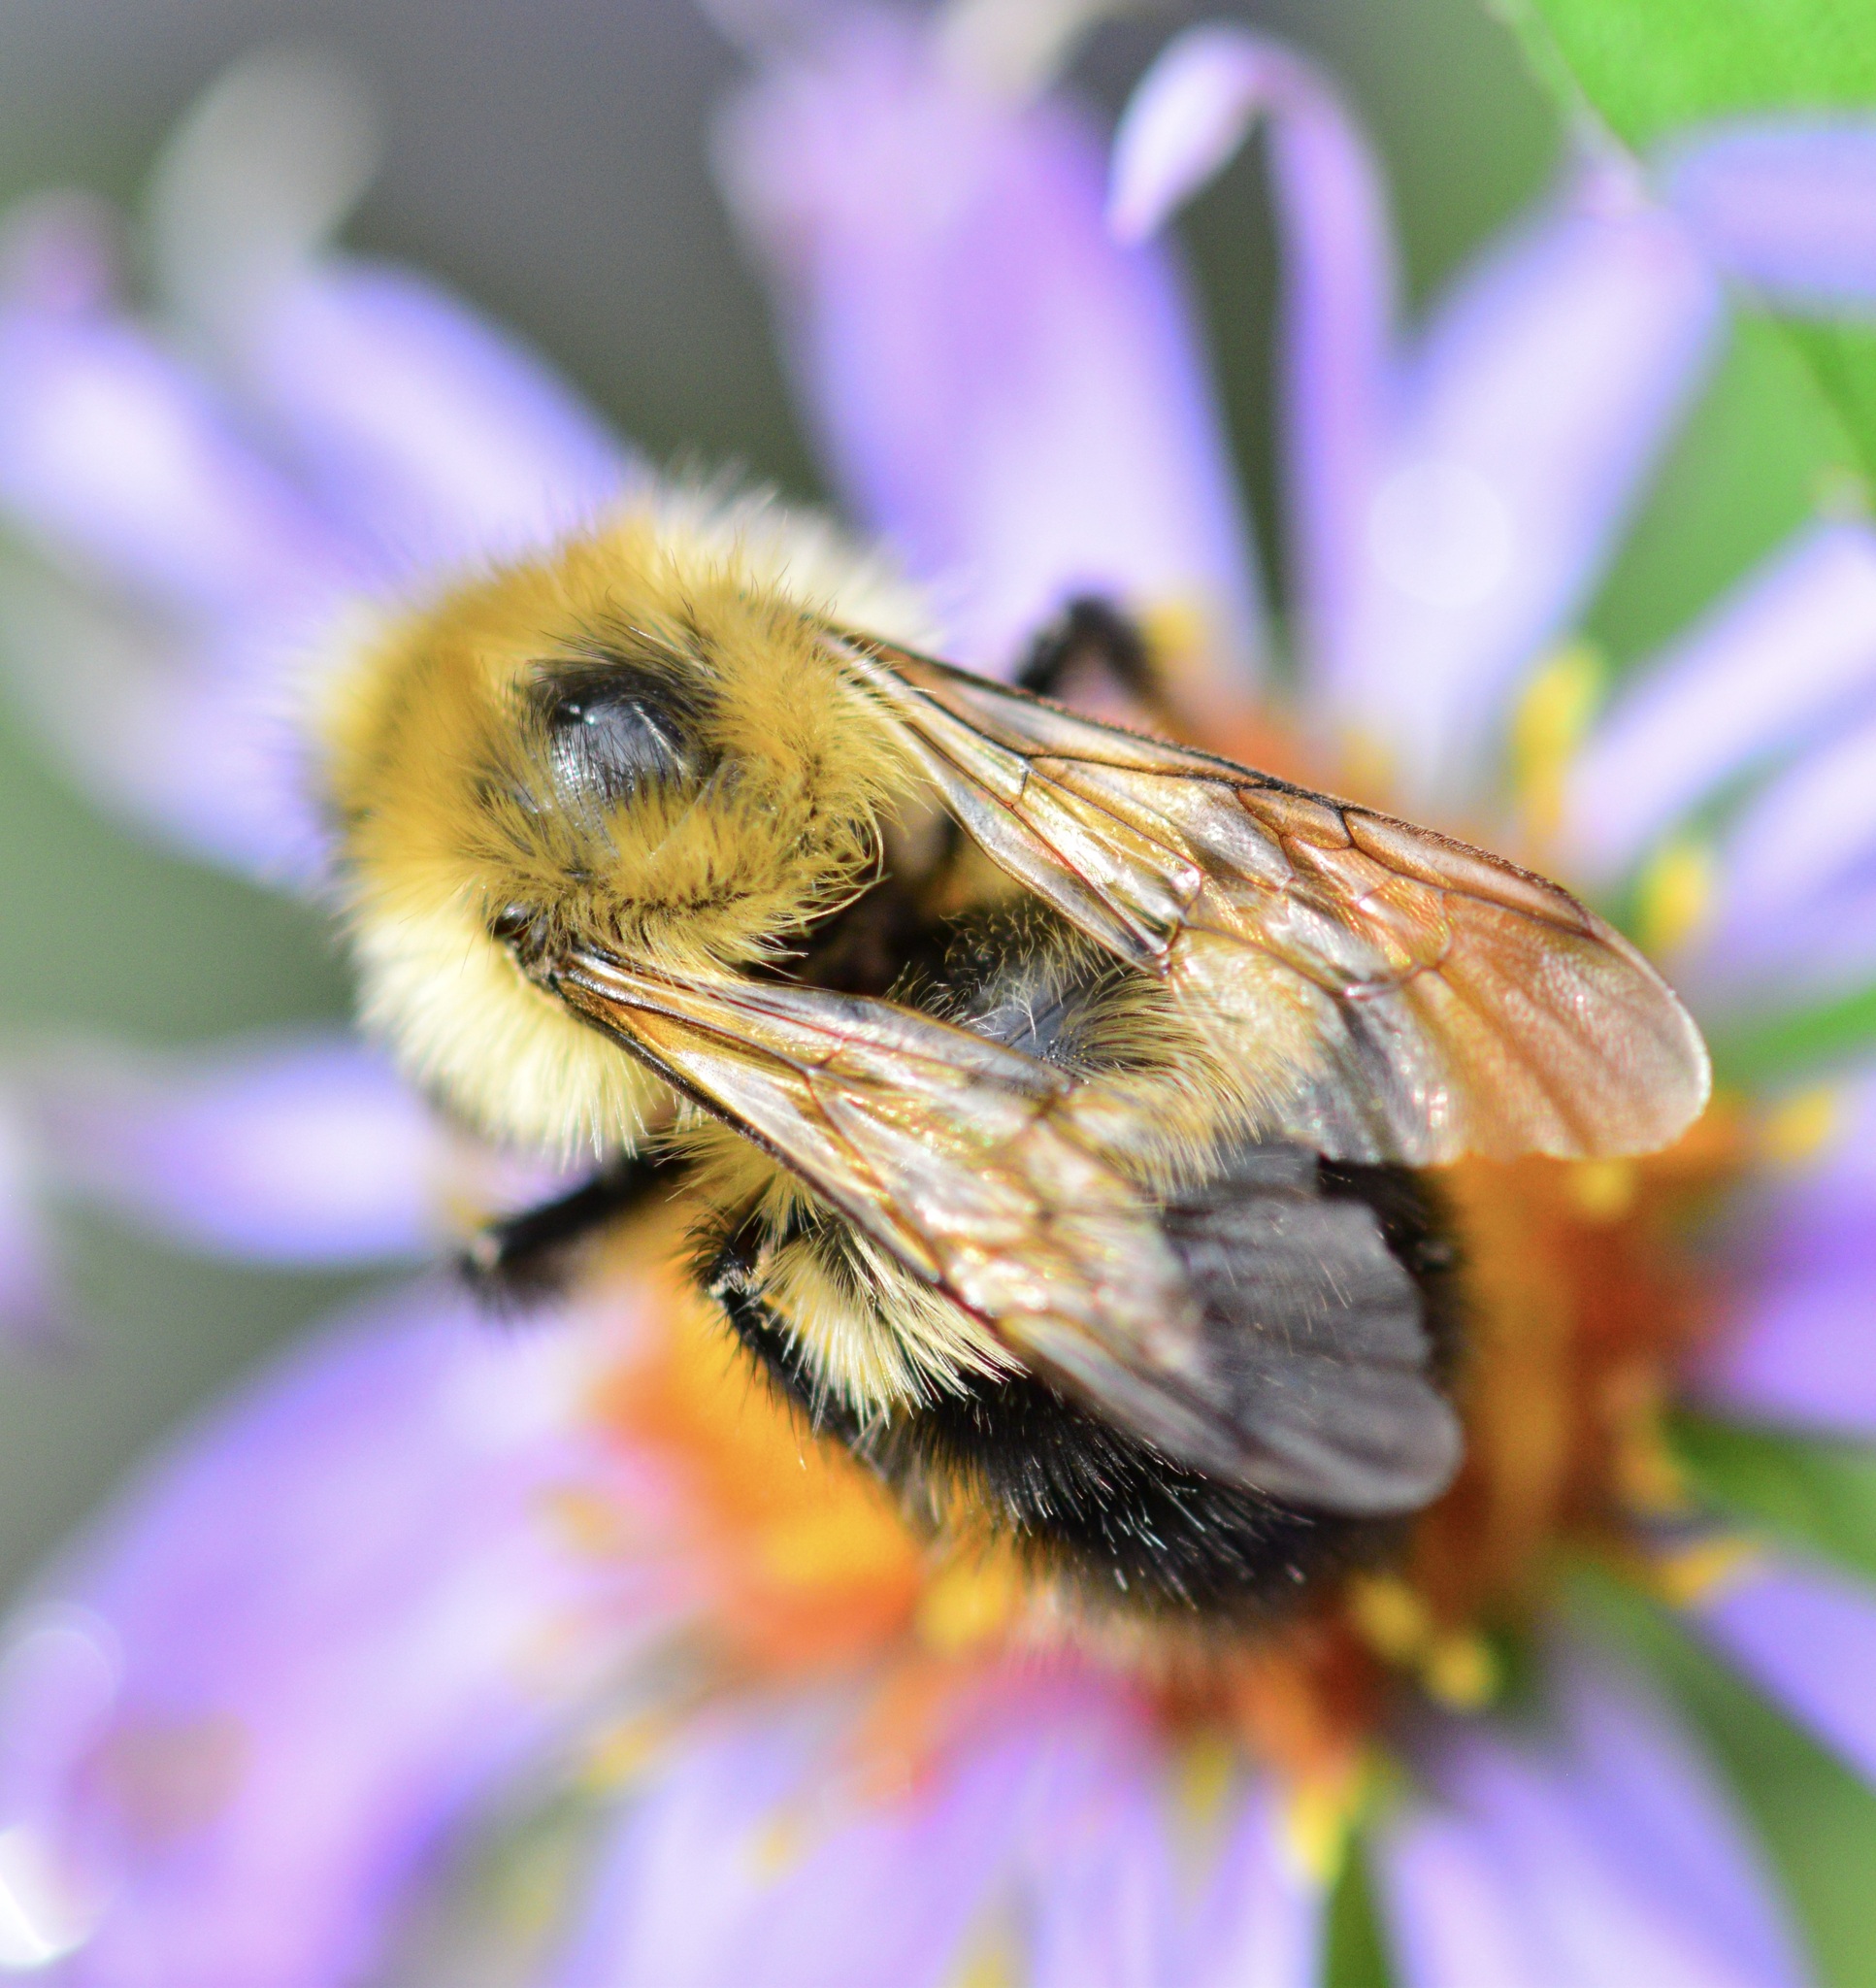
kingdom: Animalia
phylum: Arthropoda
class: Insecta
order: Hymenoptera
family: Apidae
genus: Pyrobombus
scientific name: Pyrobombus
